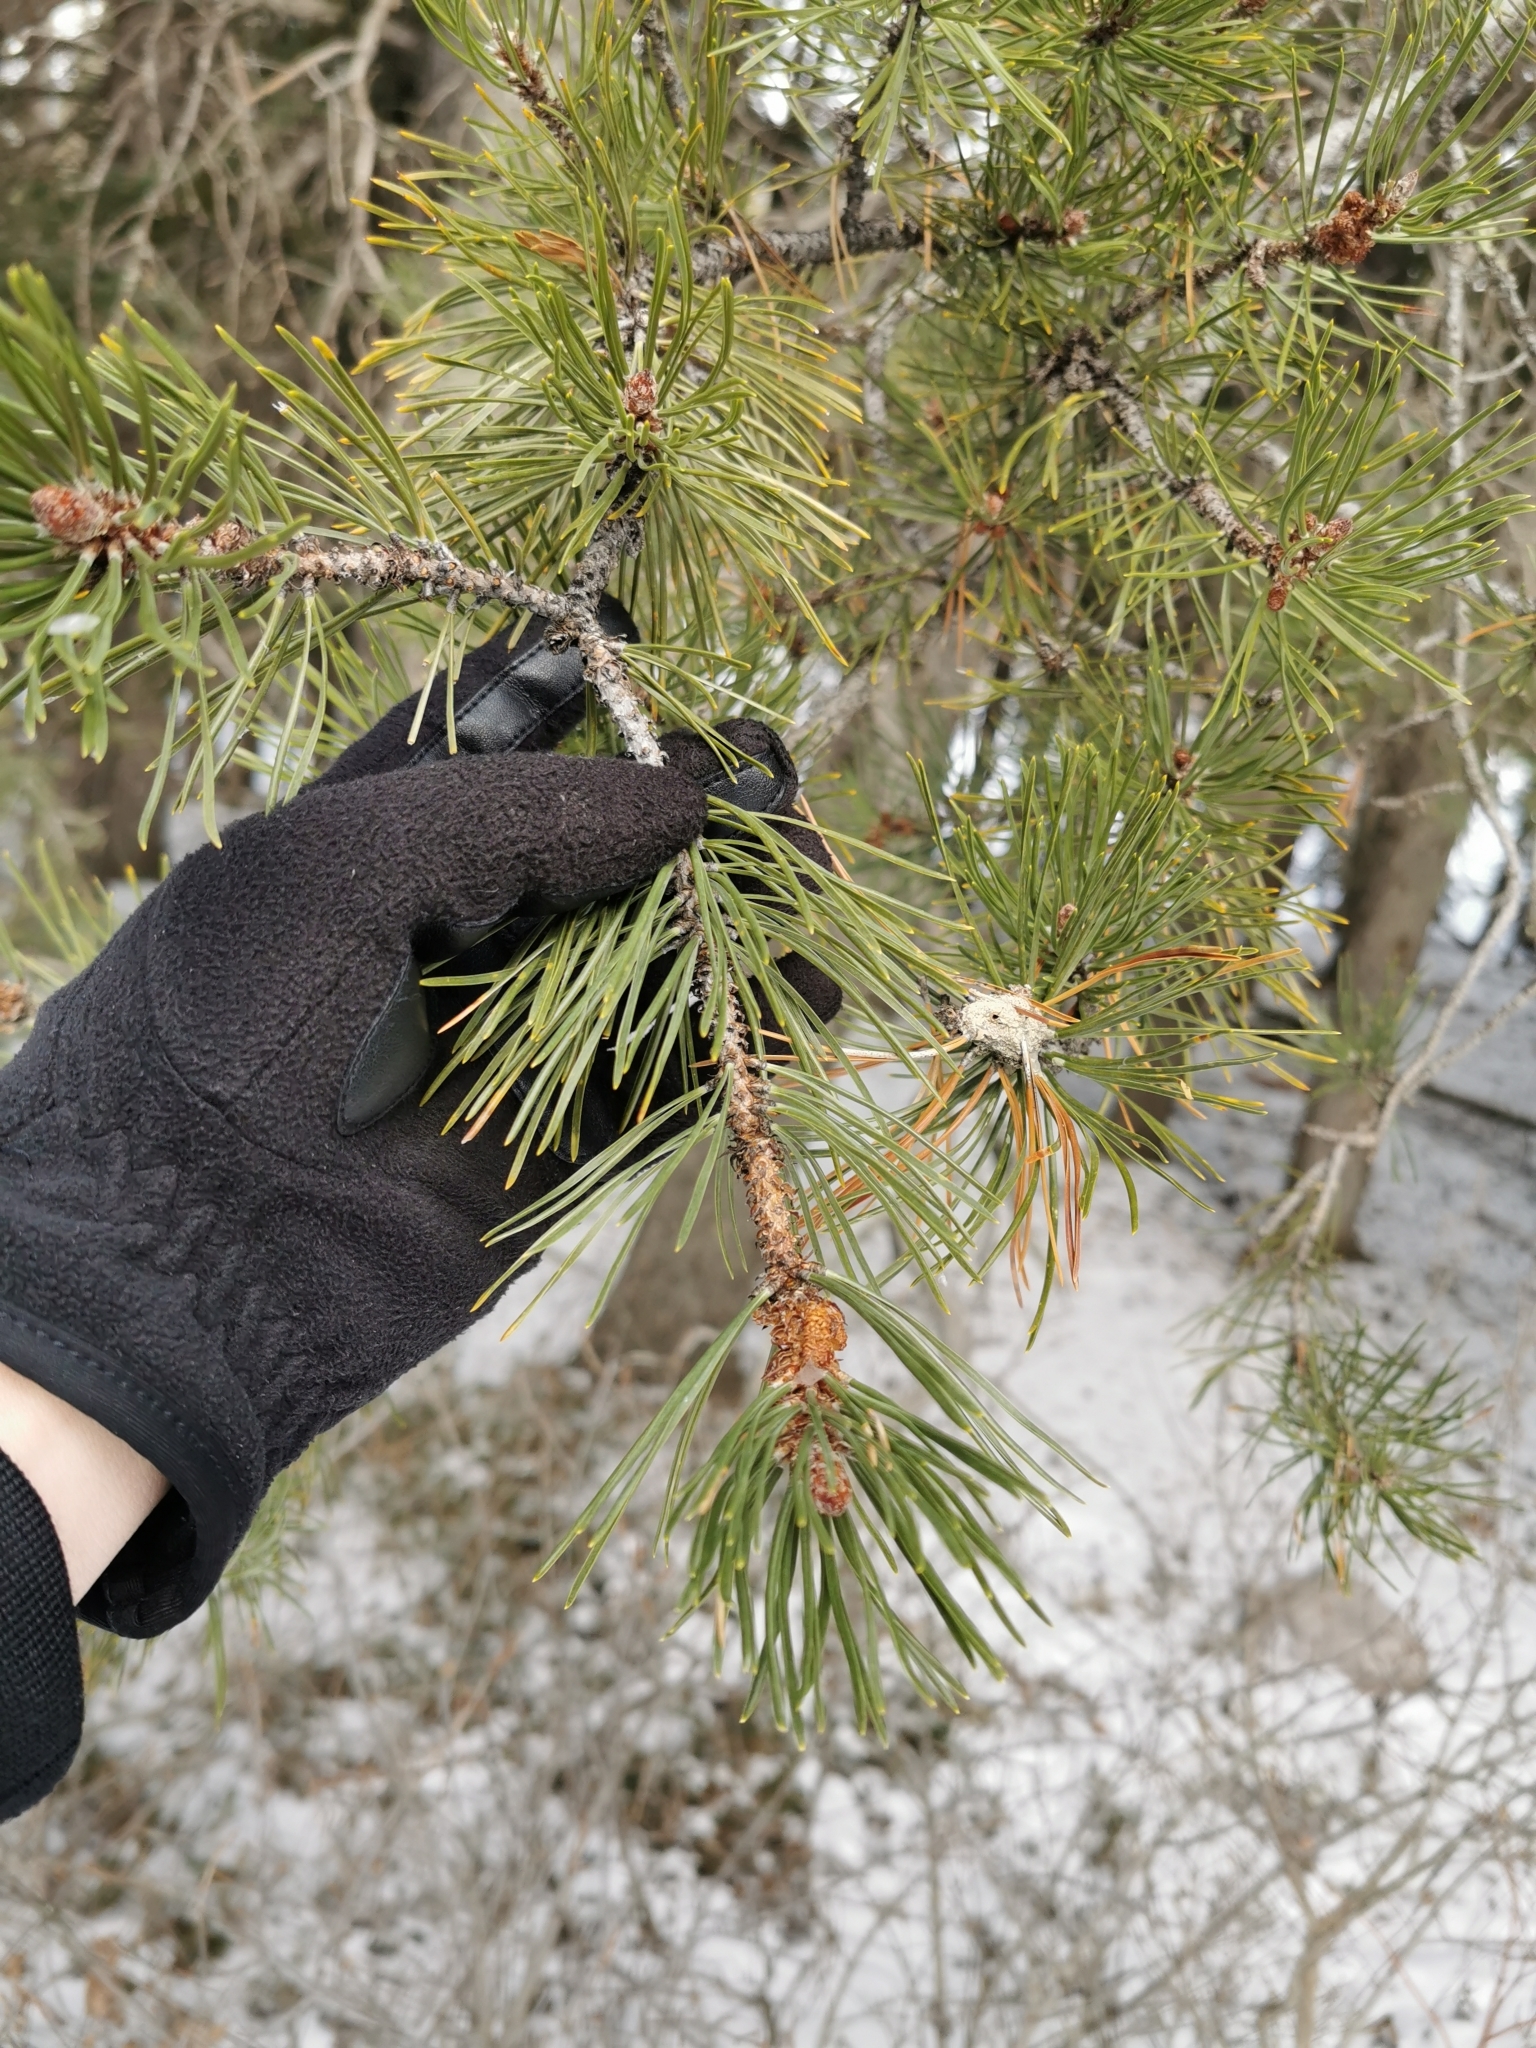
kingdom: Plantae
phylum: Tracheophyta
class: Pinopsida
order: Pinales
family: Pinaceae
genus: Pinus
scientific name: Pinus contorta
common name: Lodgepole pine
